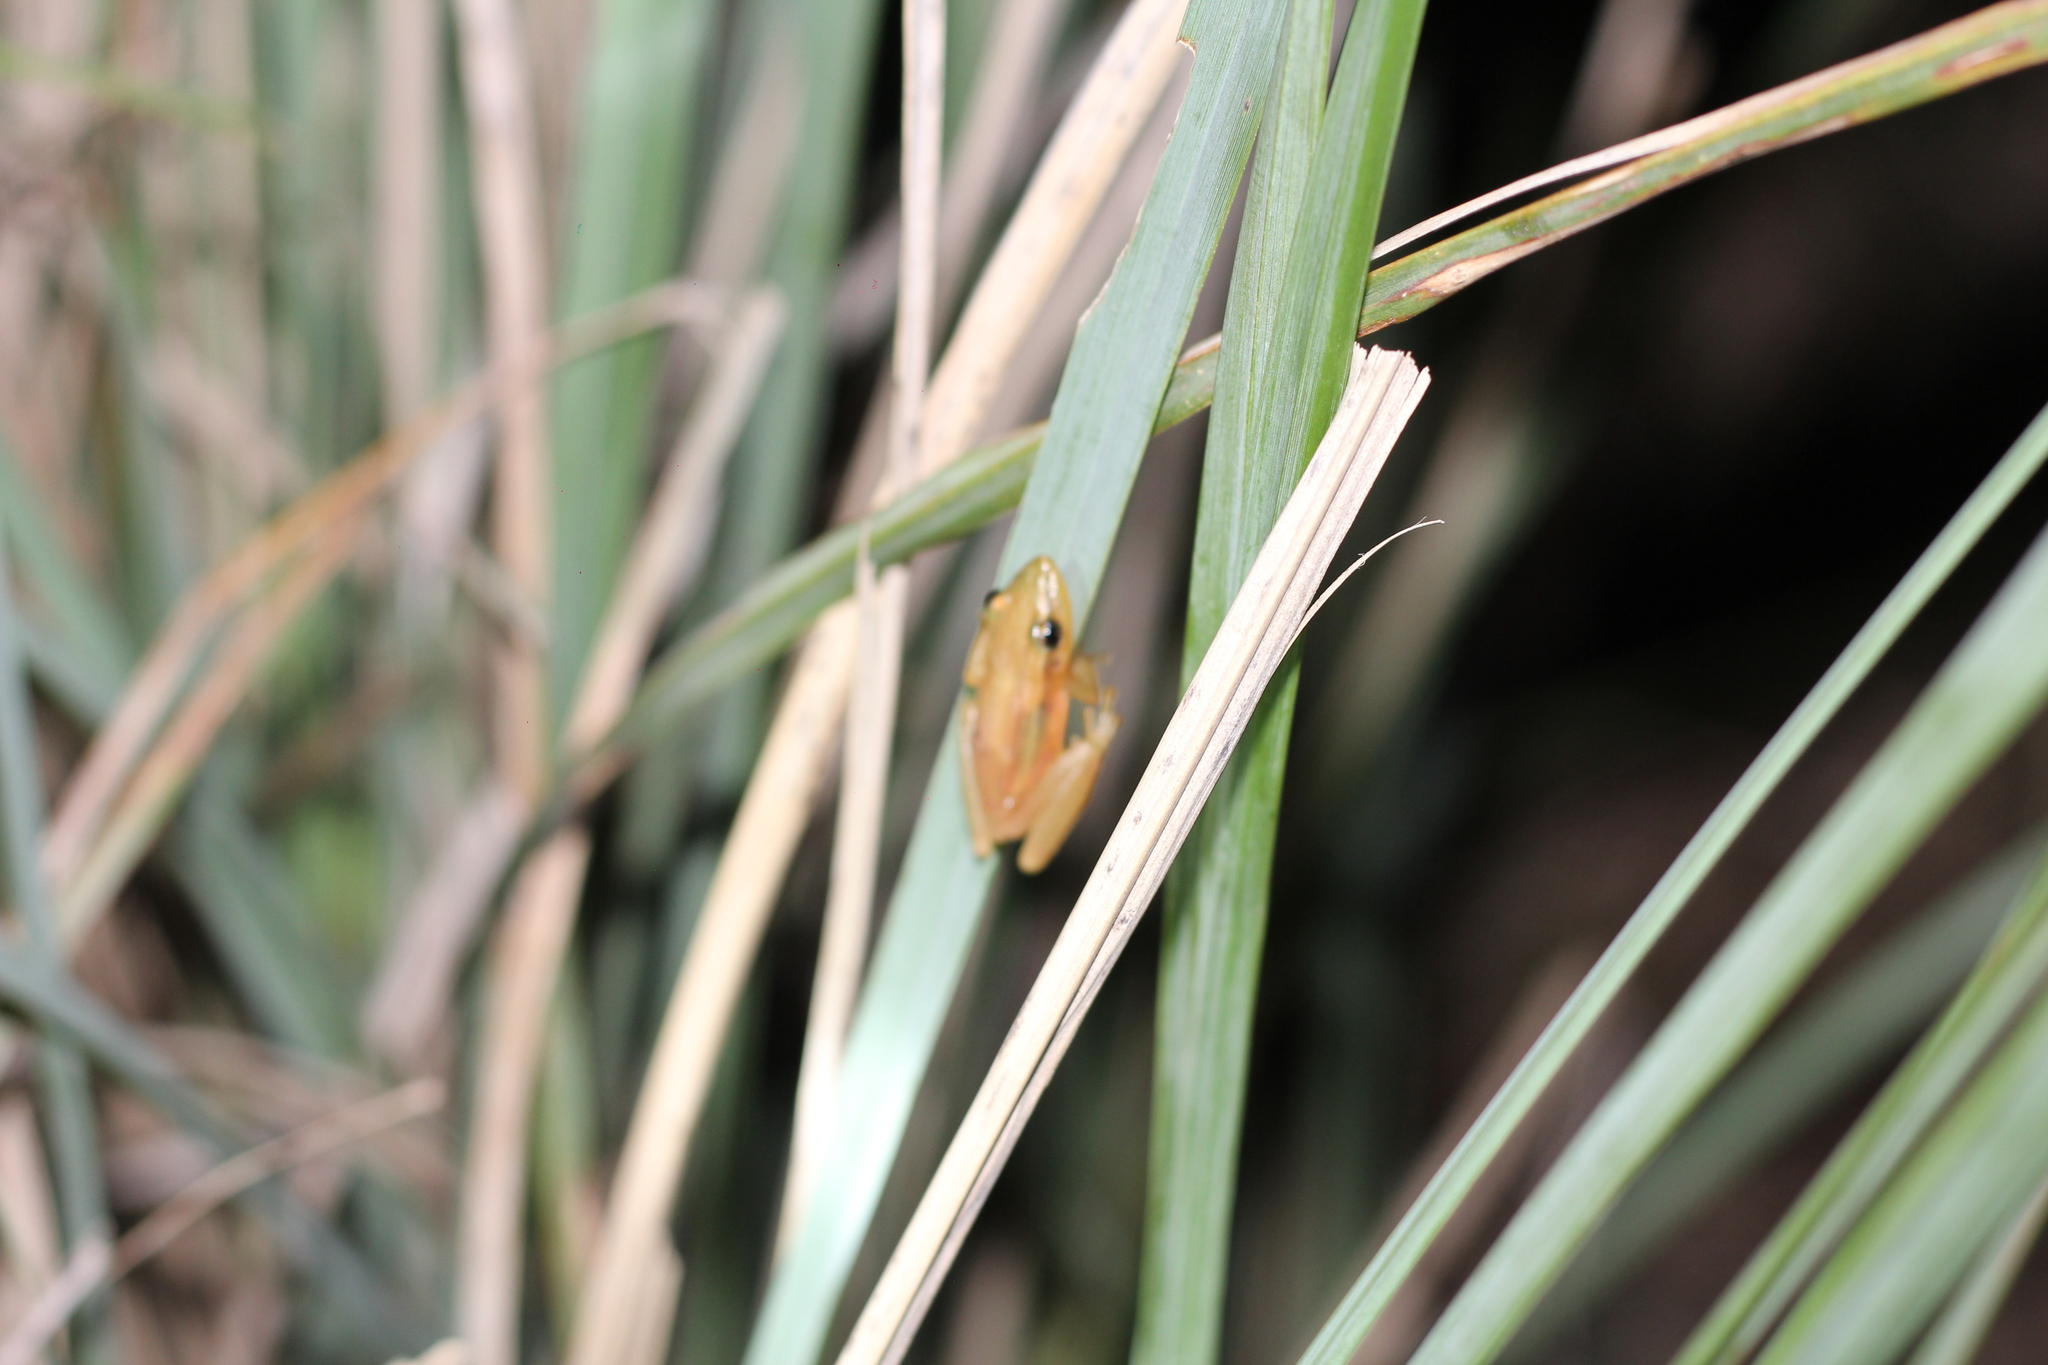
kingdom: Animalia
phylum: Chordata
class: Amphibia
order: Anura
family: Hylidae
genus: Scinax
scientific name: Scinax squalirostris
